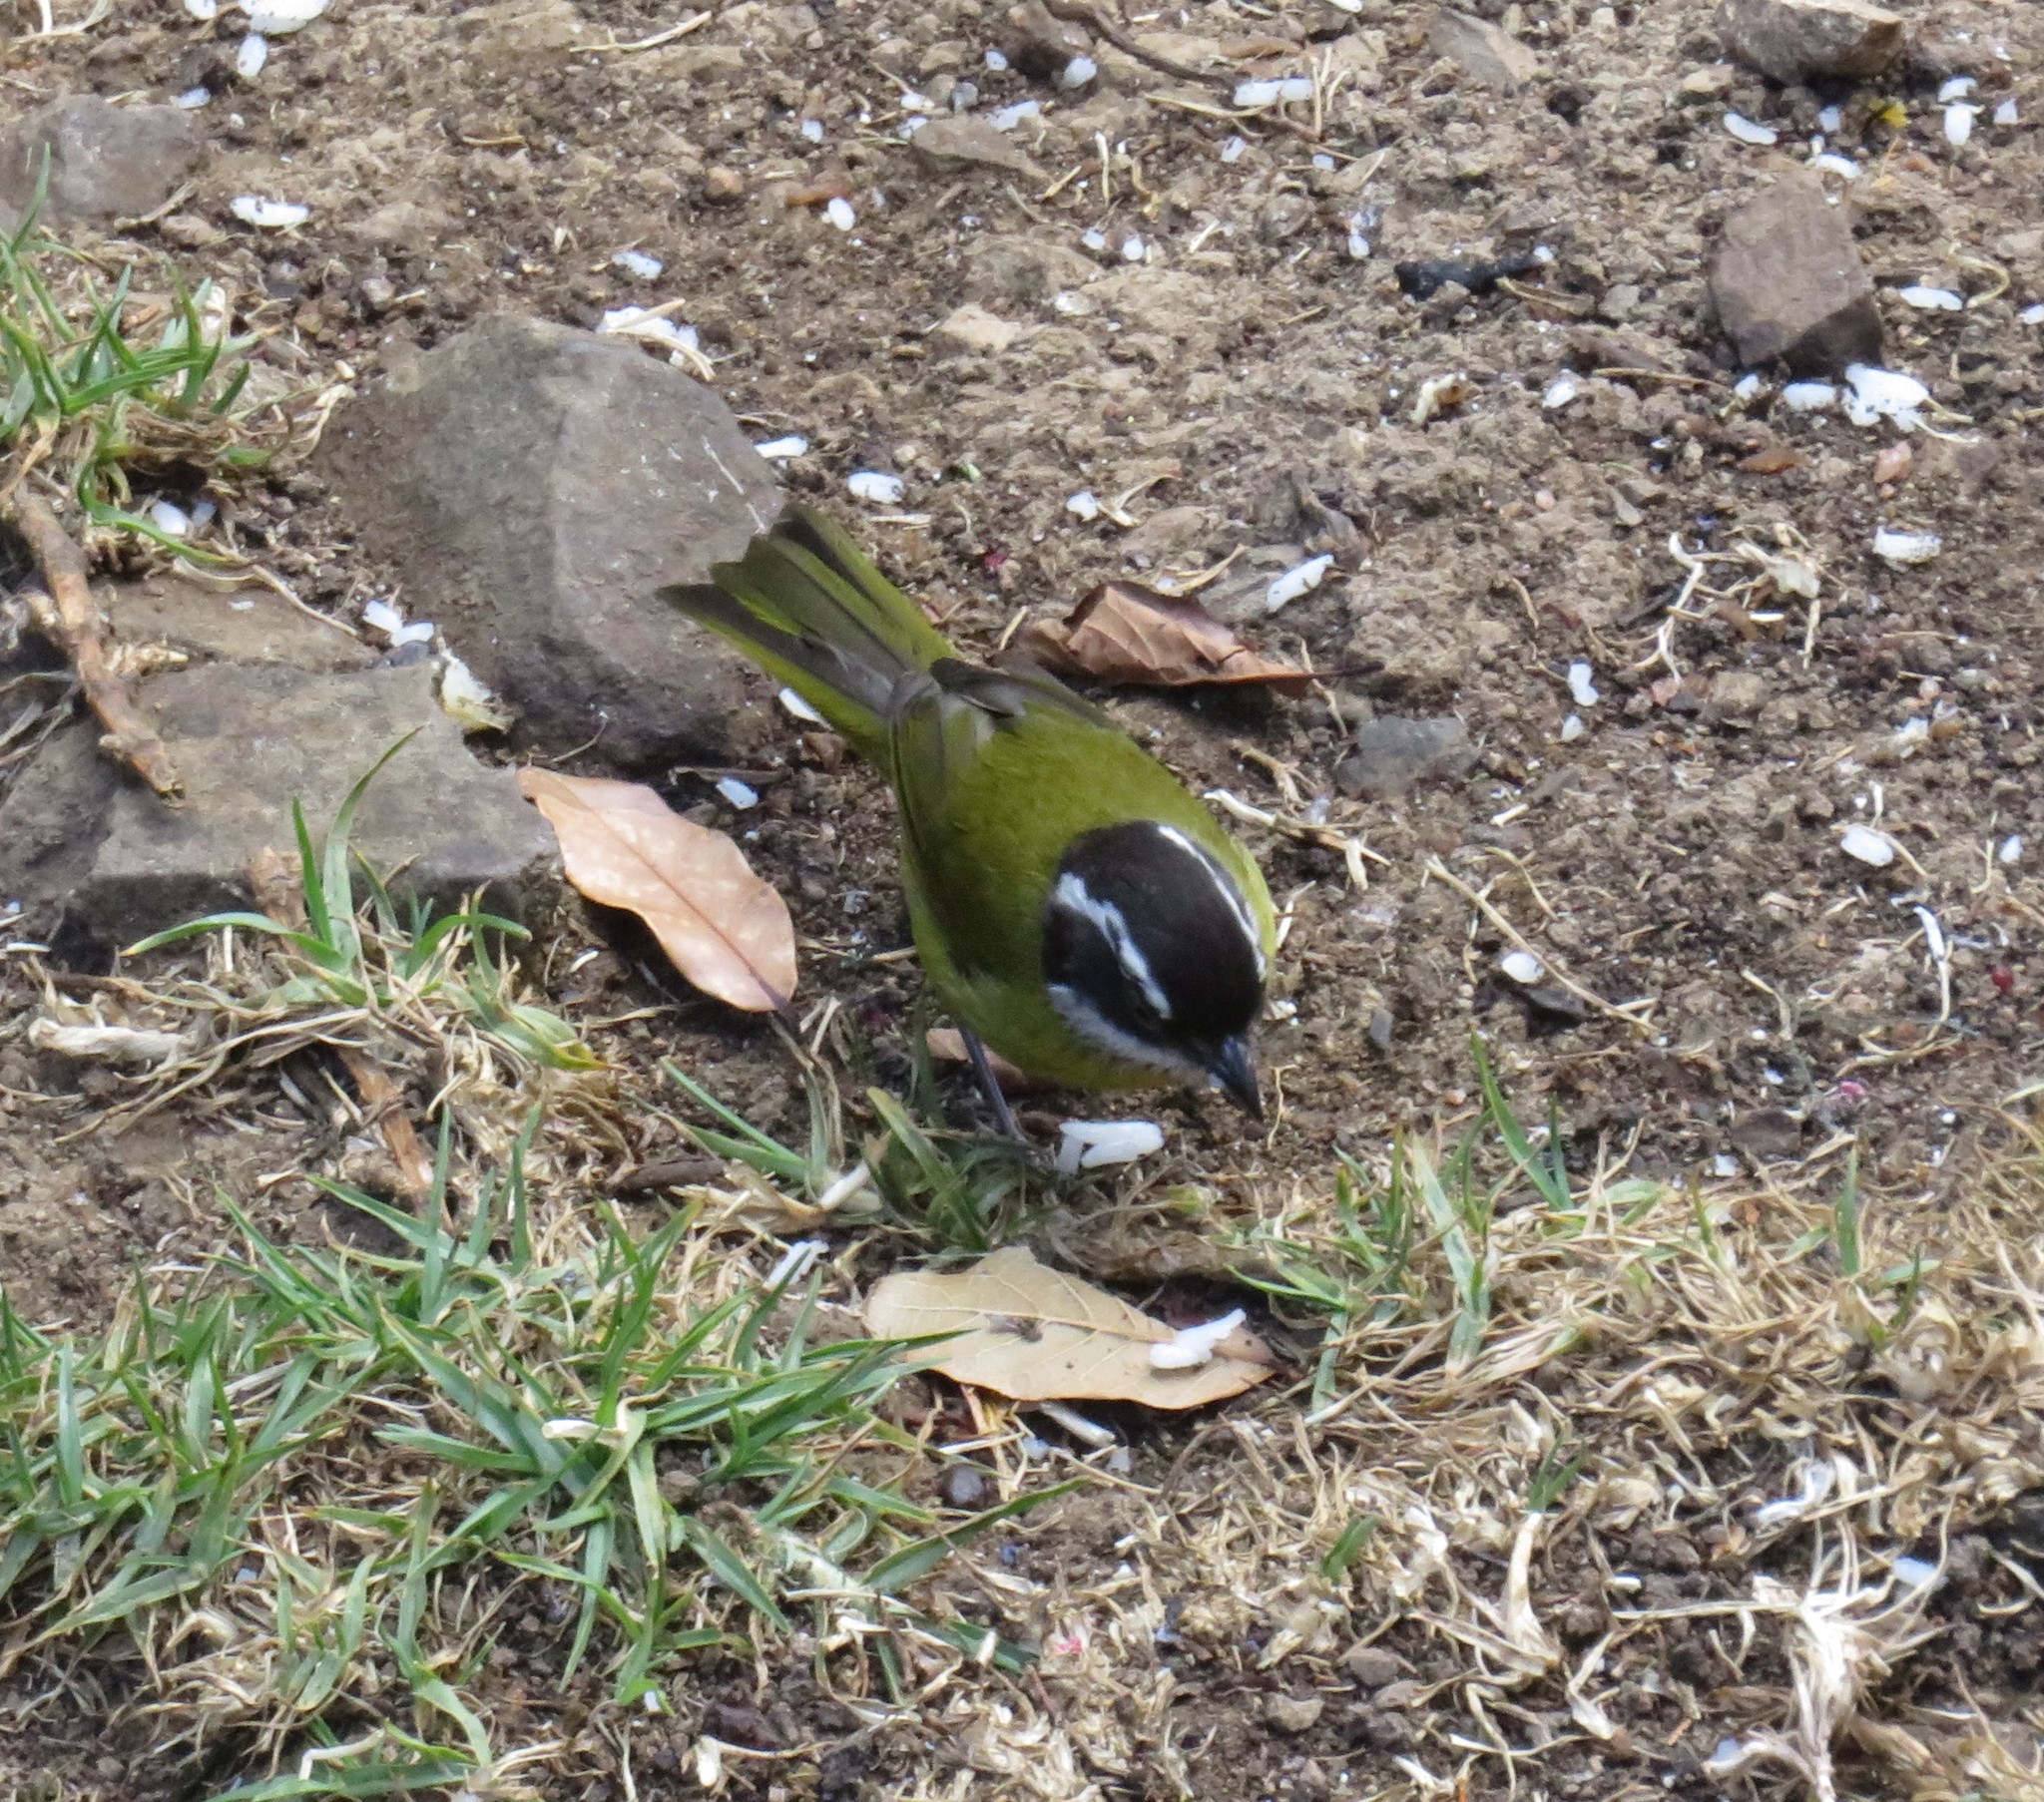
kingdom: Animalia
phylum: Chordata
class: Aves
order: Passeriformes
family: Passerellidae
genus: Chlorospingus
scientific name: Chlorospingus pileatus
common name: Sooty-capped bush-tanager
